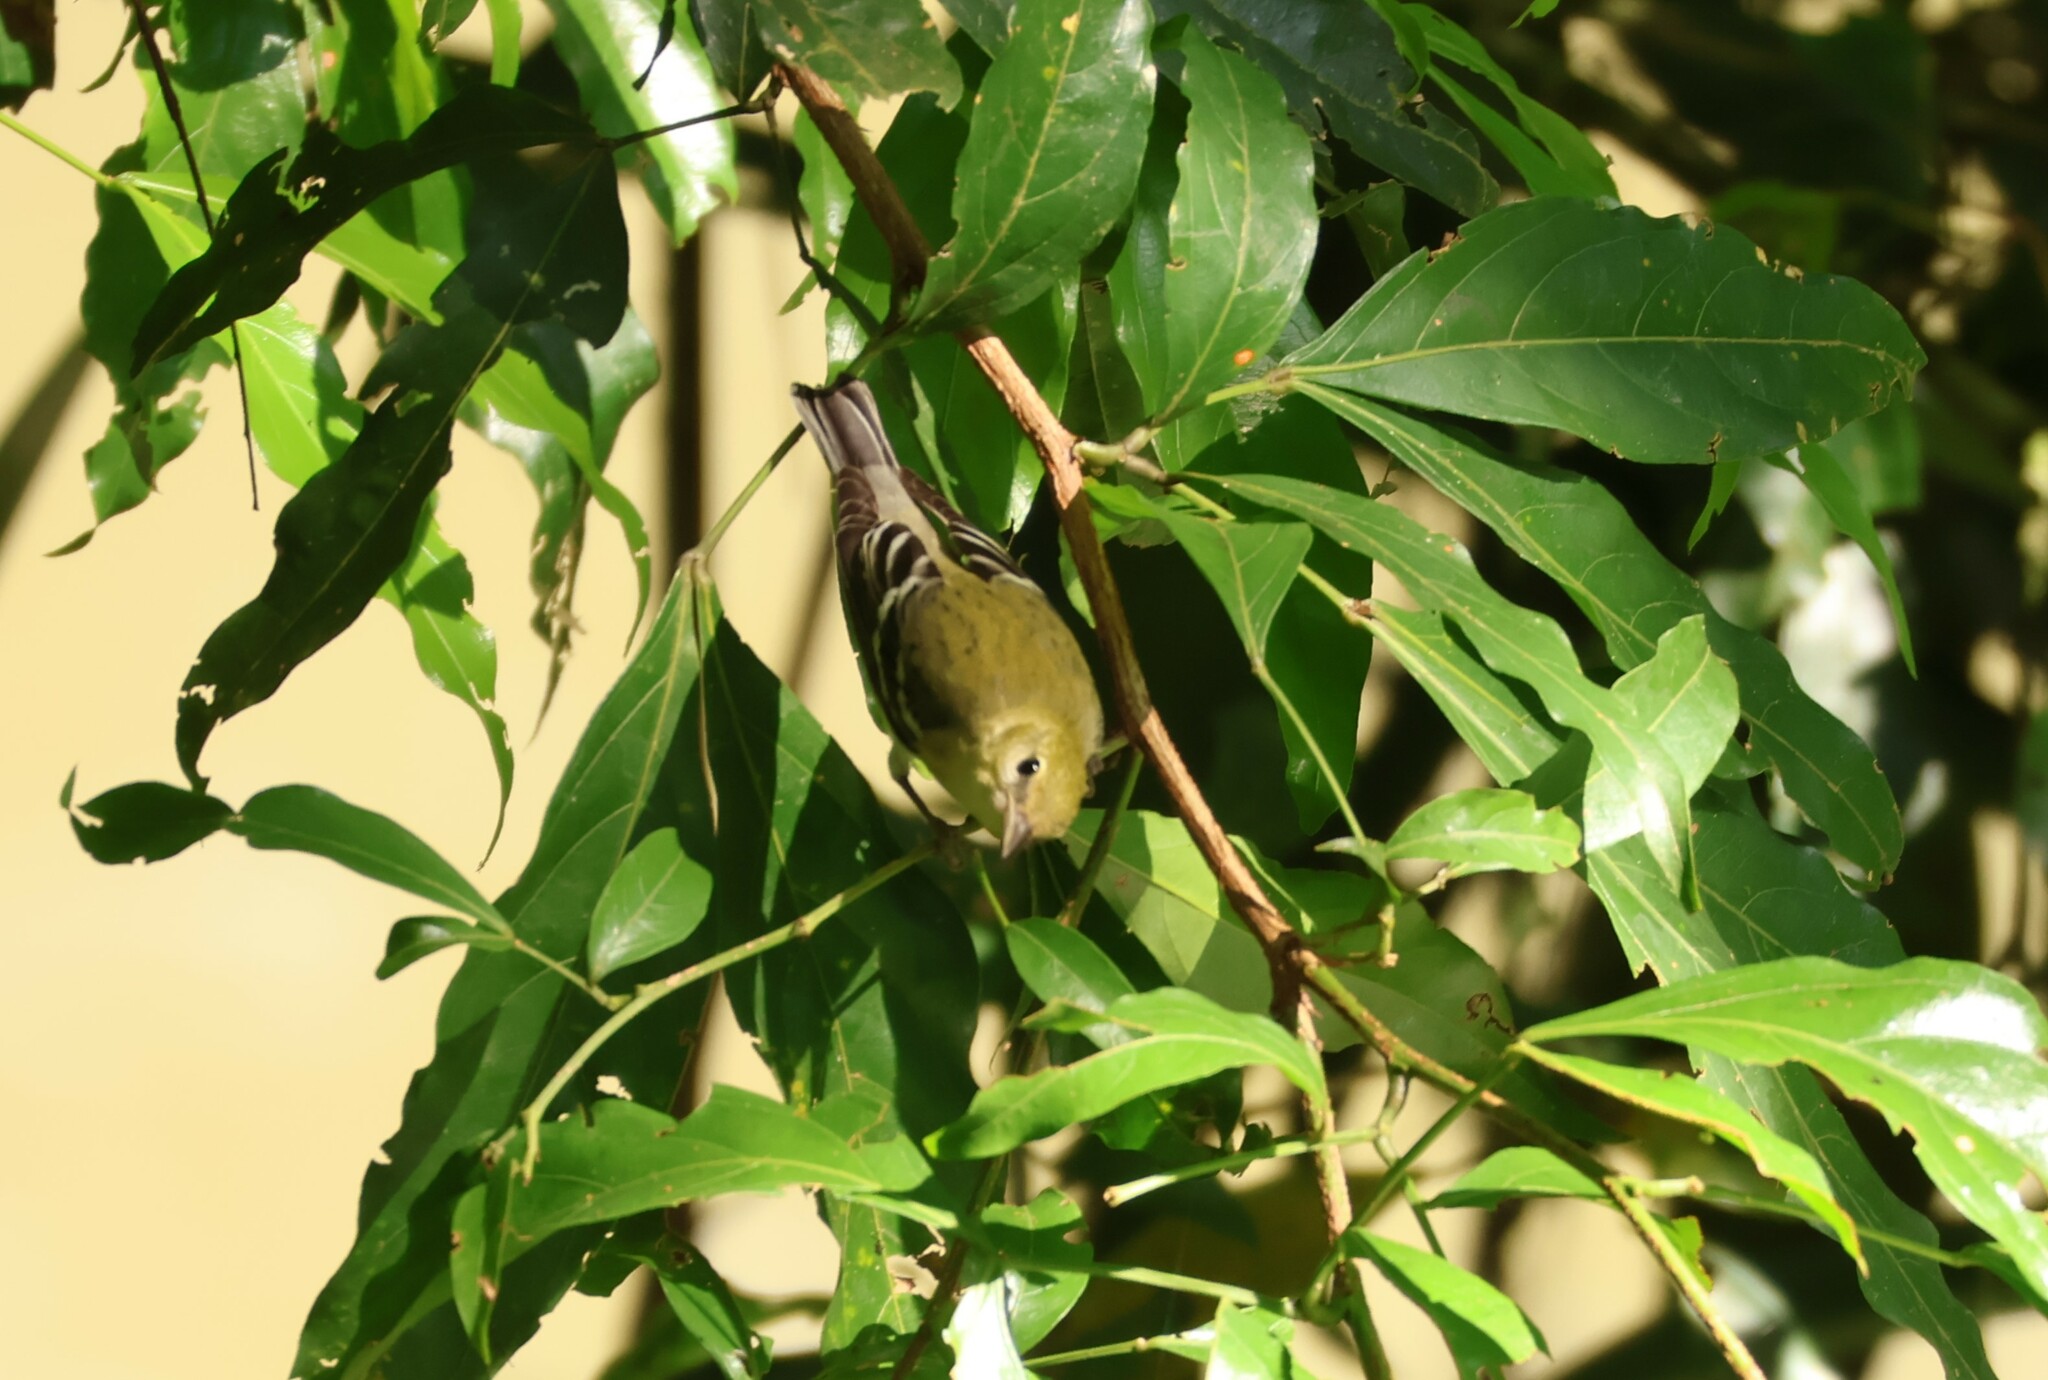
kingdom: Animalia
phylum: Chordata
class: Aves
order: Passeriformes
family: Parulidae
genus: Setophaga
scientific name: Setophaga castanea
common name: Bay-breasted warbler
